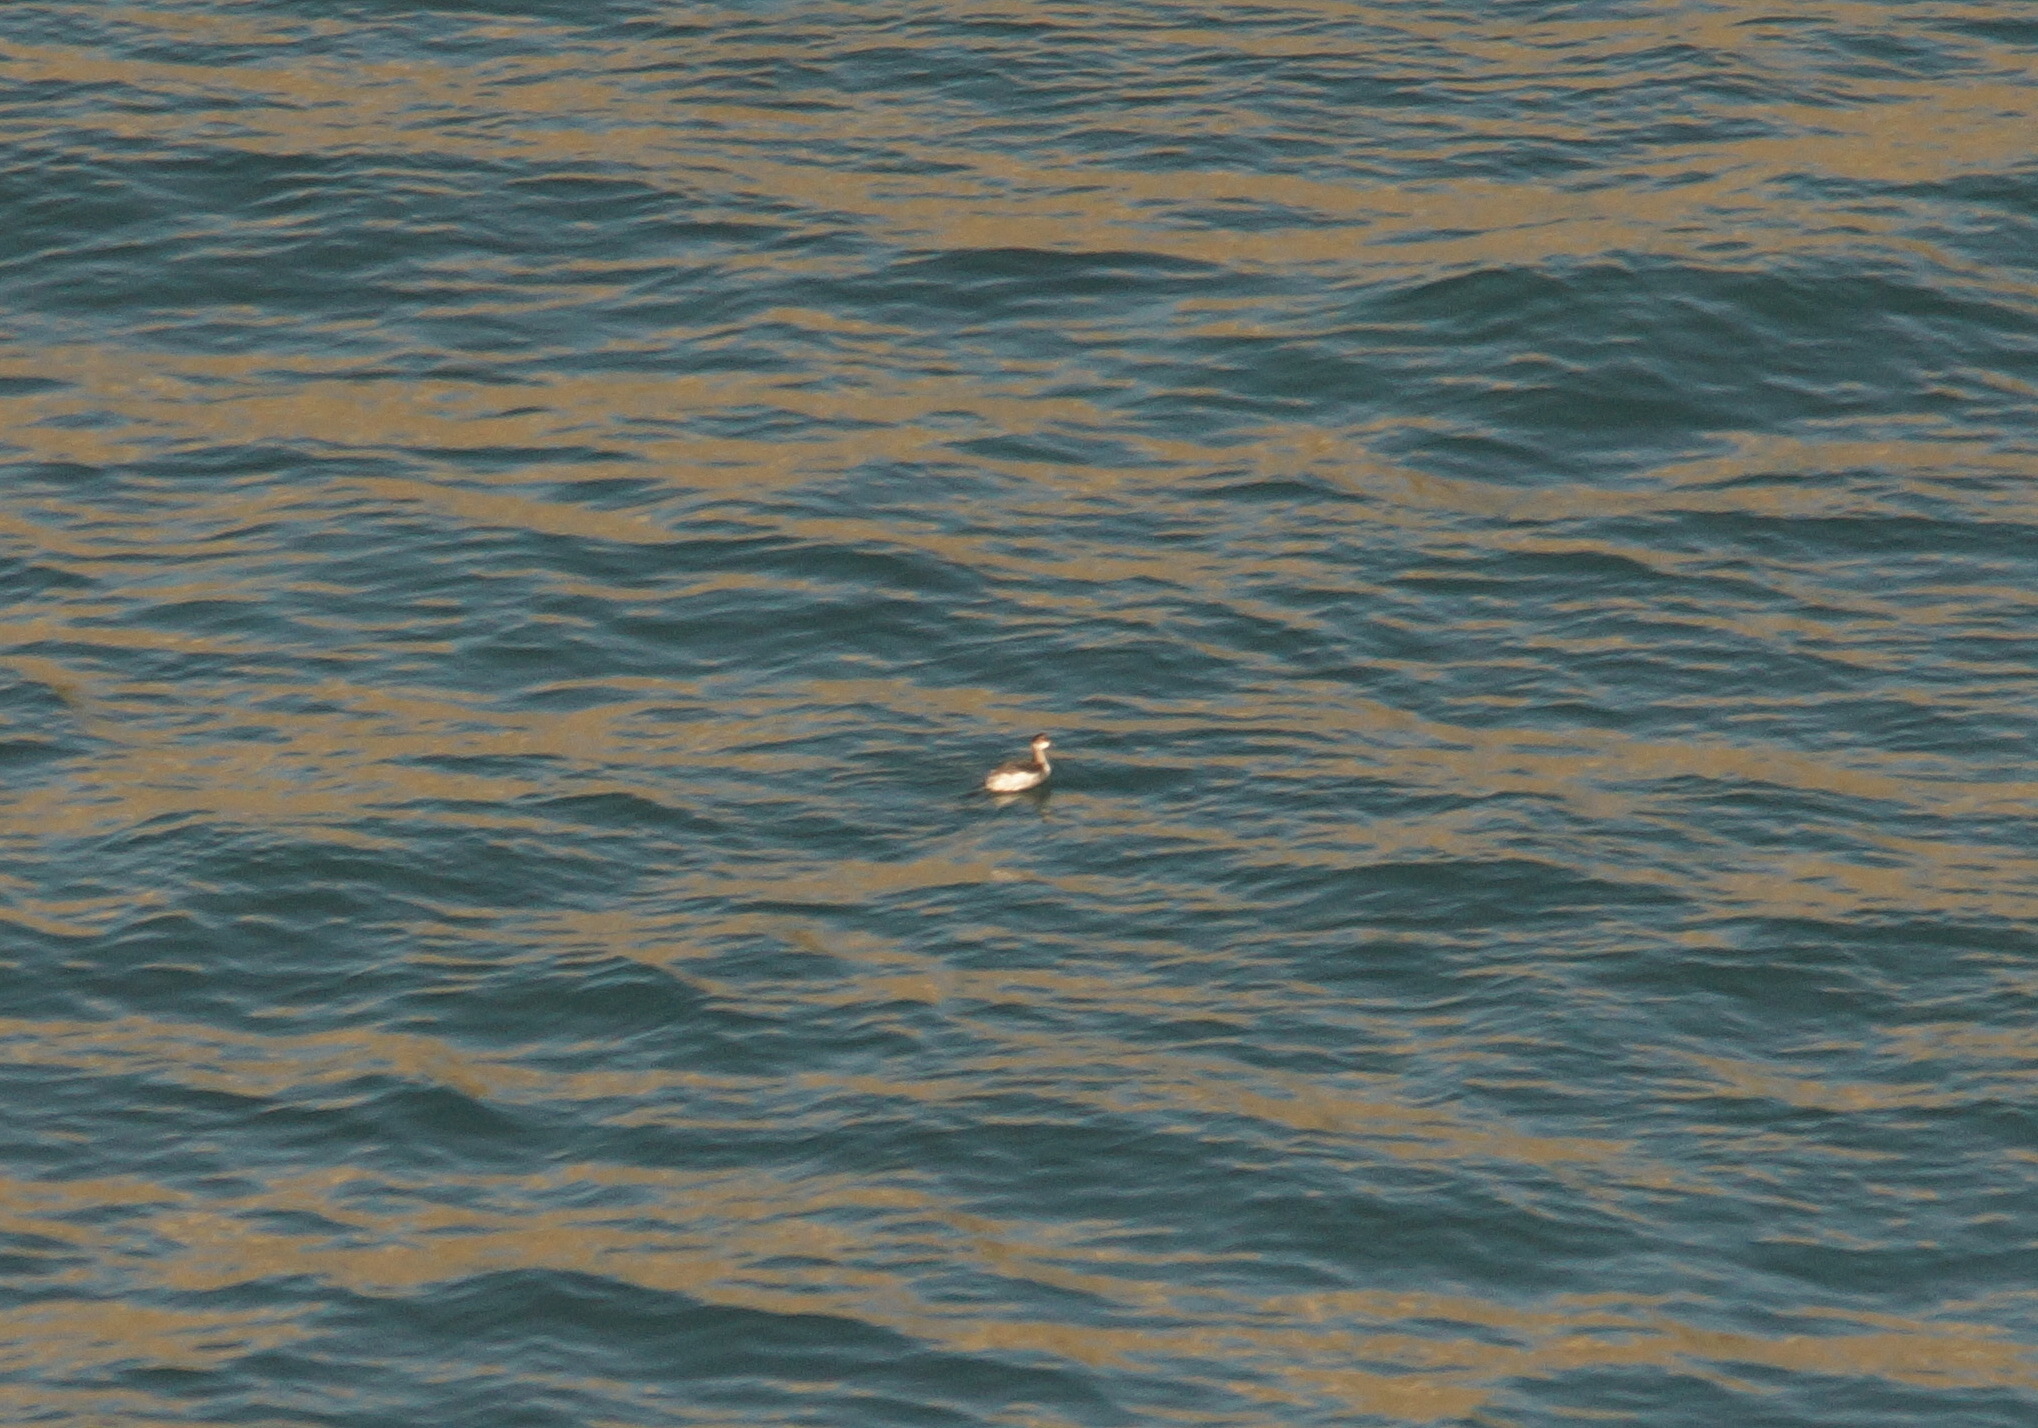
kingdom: Animalia
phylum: Chordata
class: Aves
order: Podicipediformes
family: Podicipedidae
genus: Podiceps
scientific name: Podiceps nigricollis
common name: Black-necked grebe
